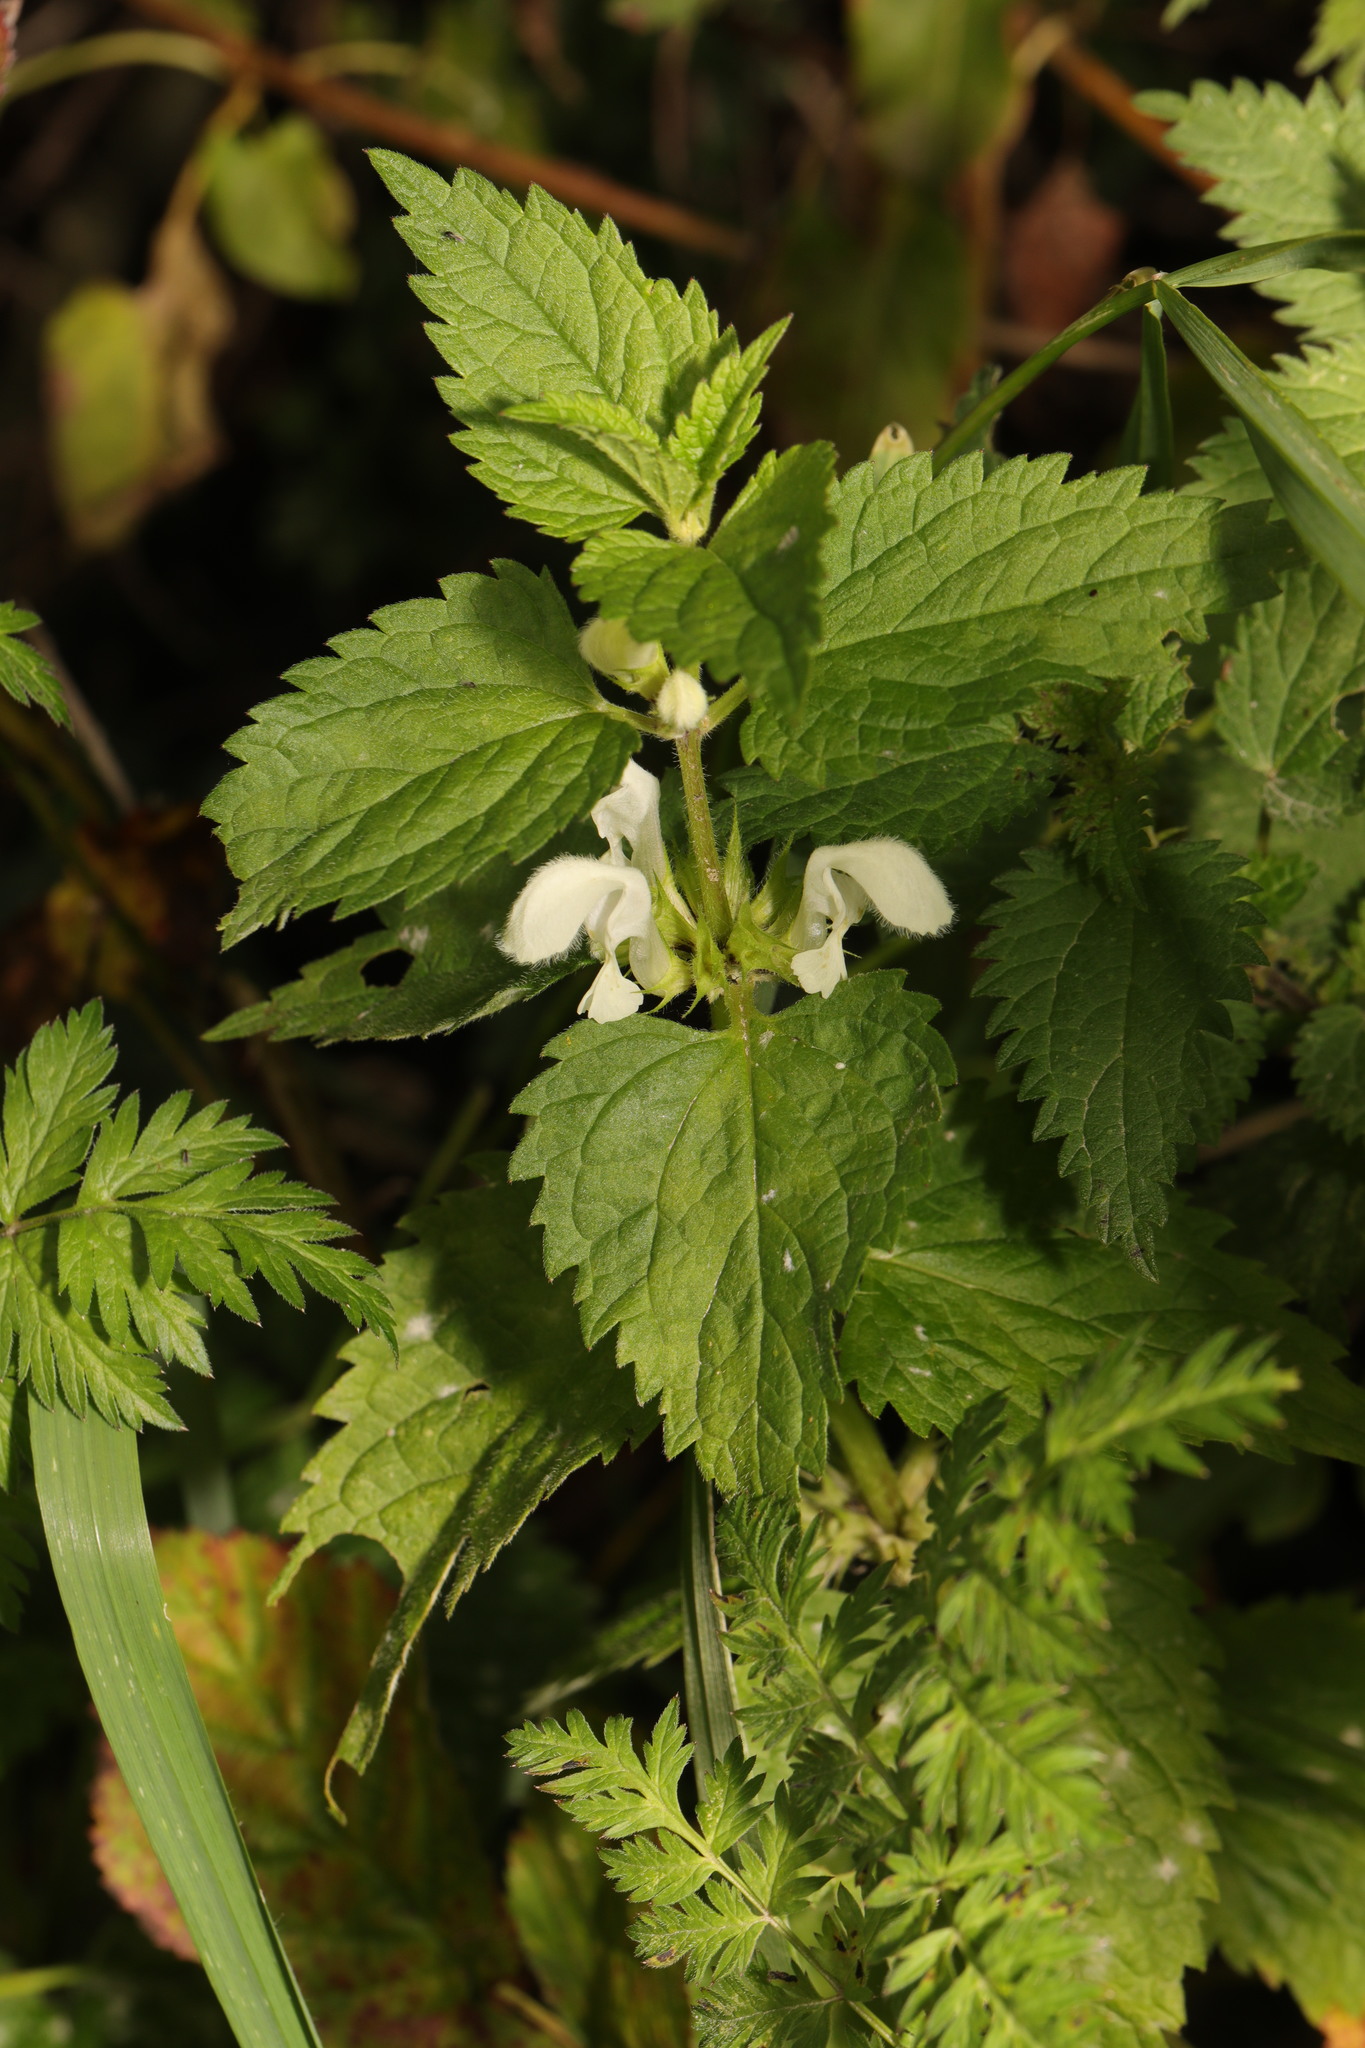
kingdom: Plantae
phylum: Tracheophyta
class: Magnoliopsida
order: Lamiales
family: Lamiaceae
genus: Lamium
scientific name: Lamium album
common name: White dead-nettle
